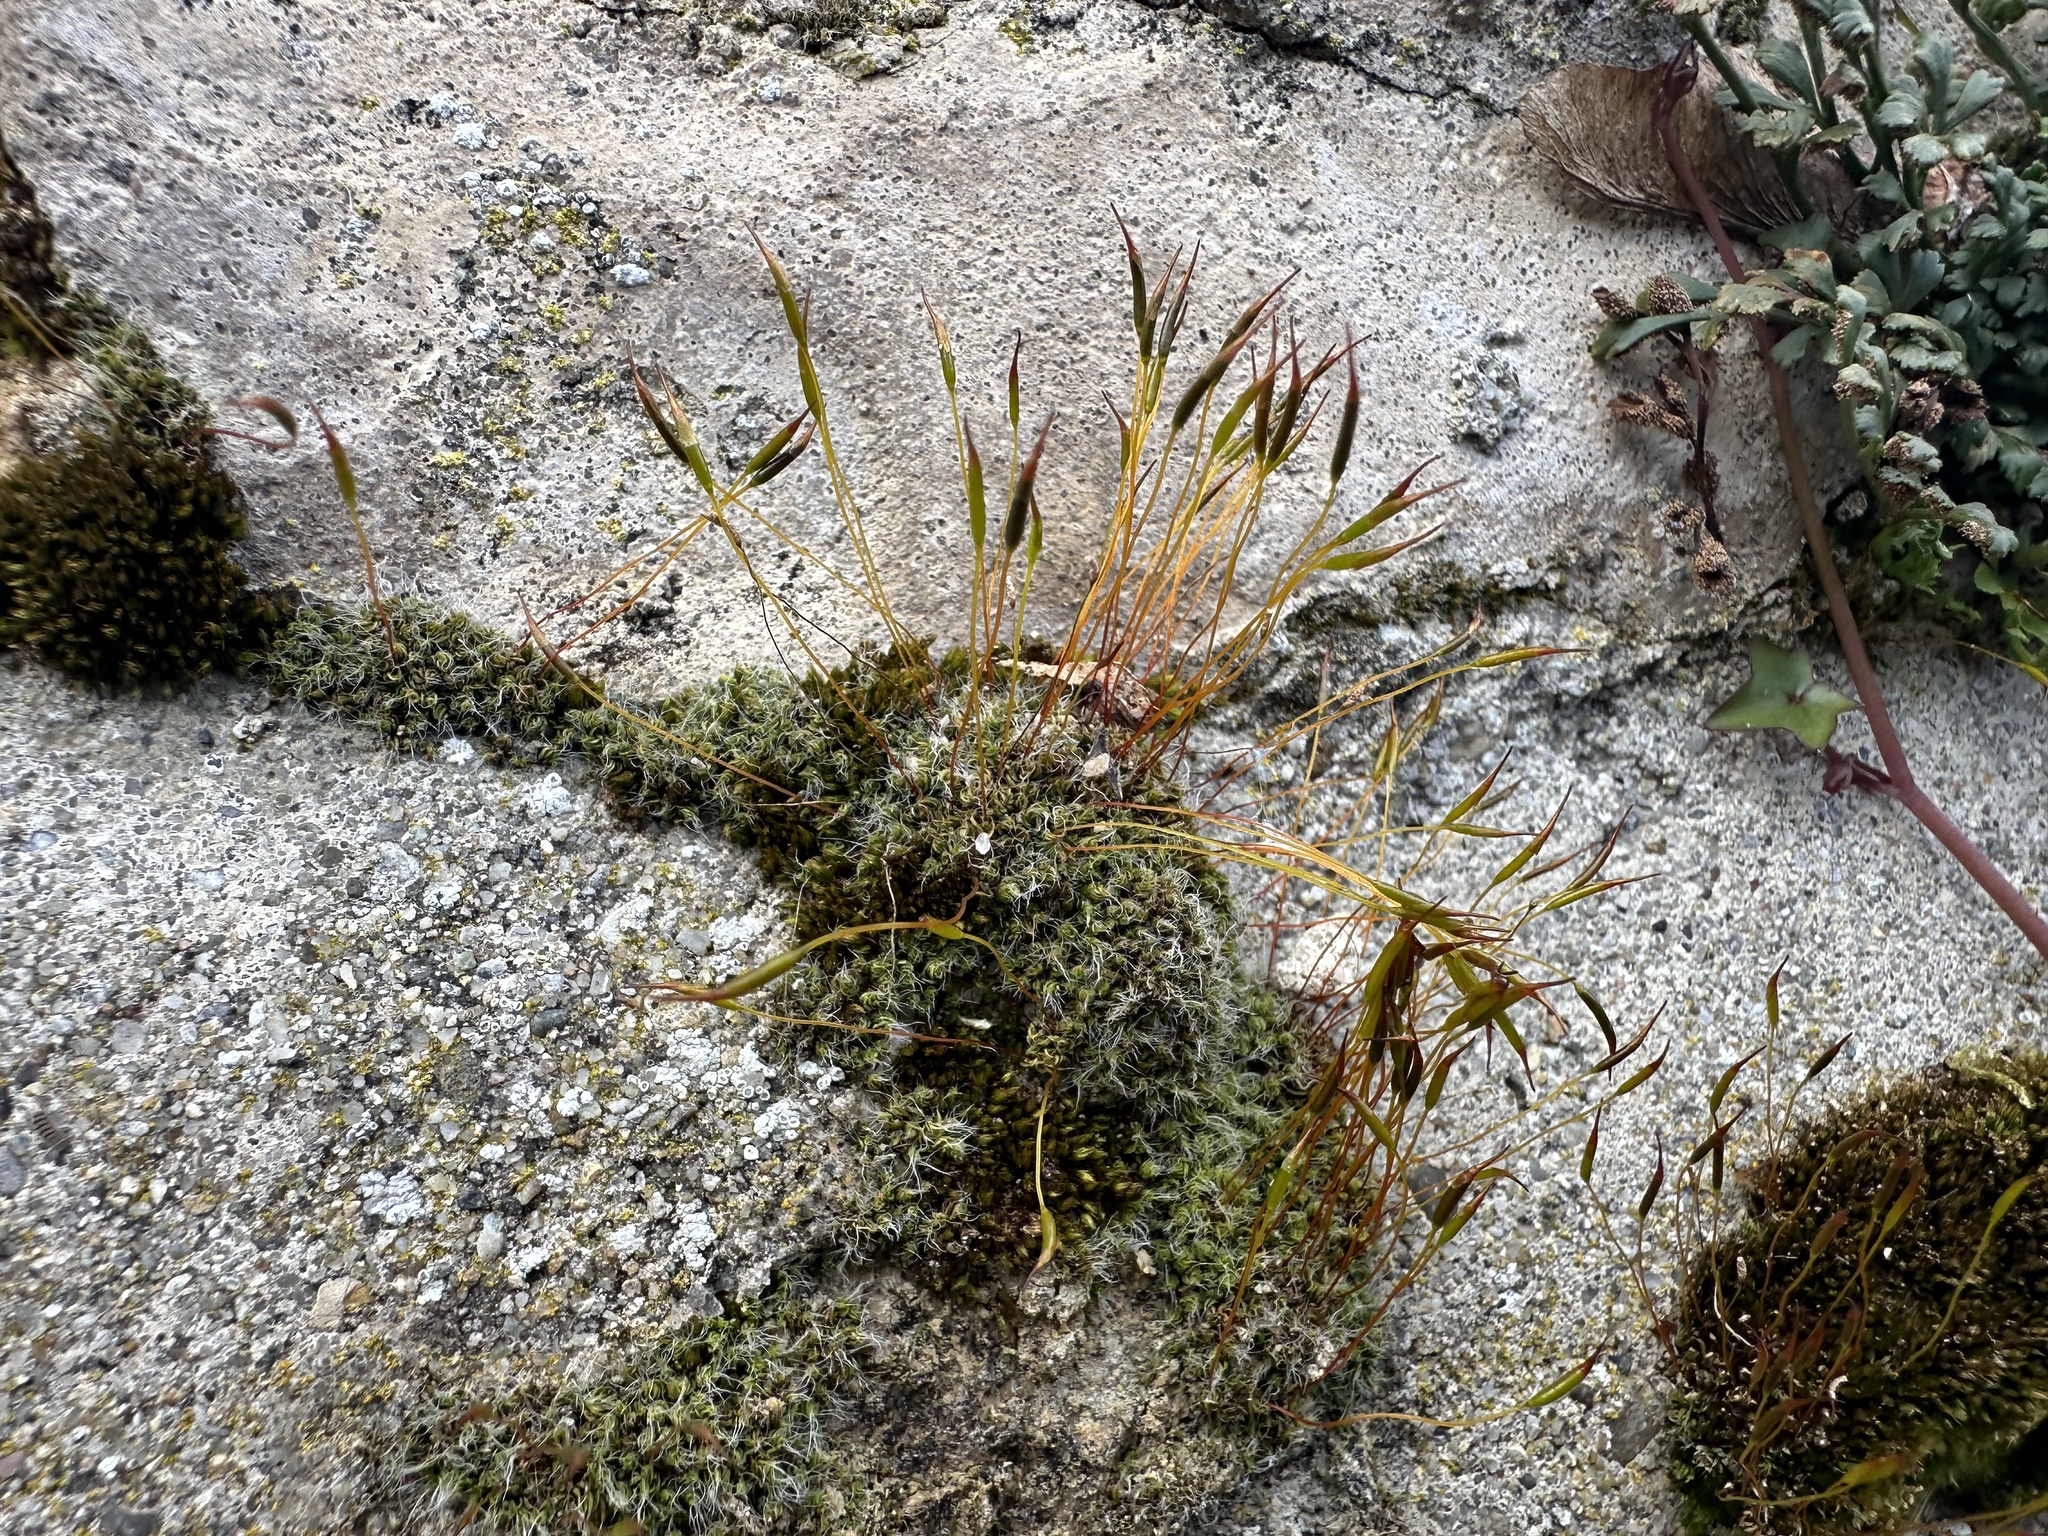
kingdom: Plantae
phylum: Bryophyta
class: Bryopsida
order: Pottiales
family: Pottiaceae
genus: Tortula
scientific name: Tortula muralis
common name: Wall screw-moss
